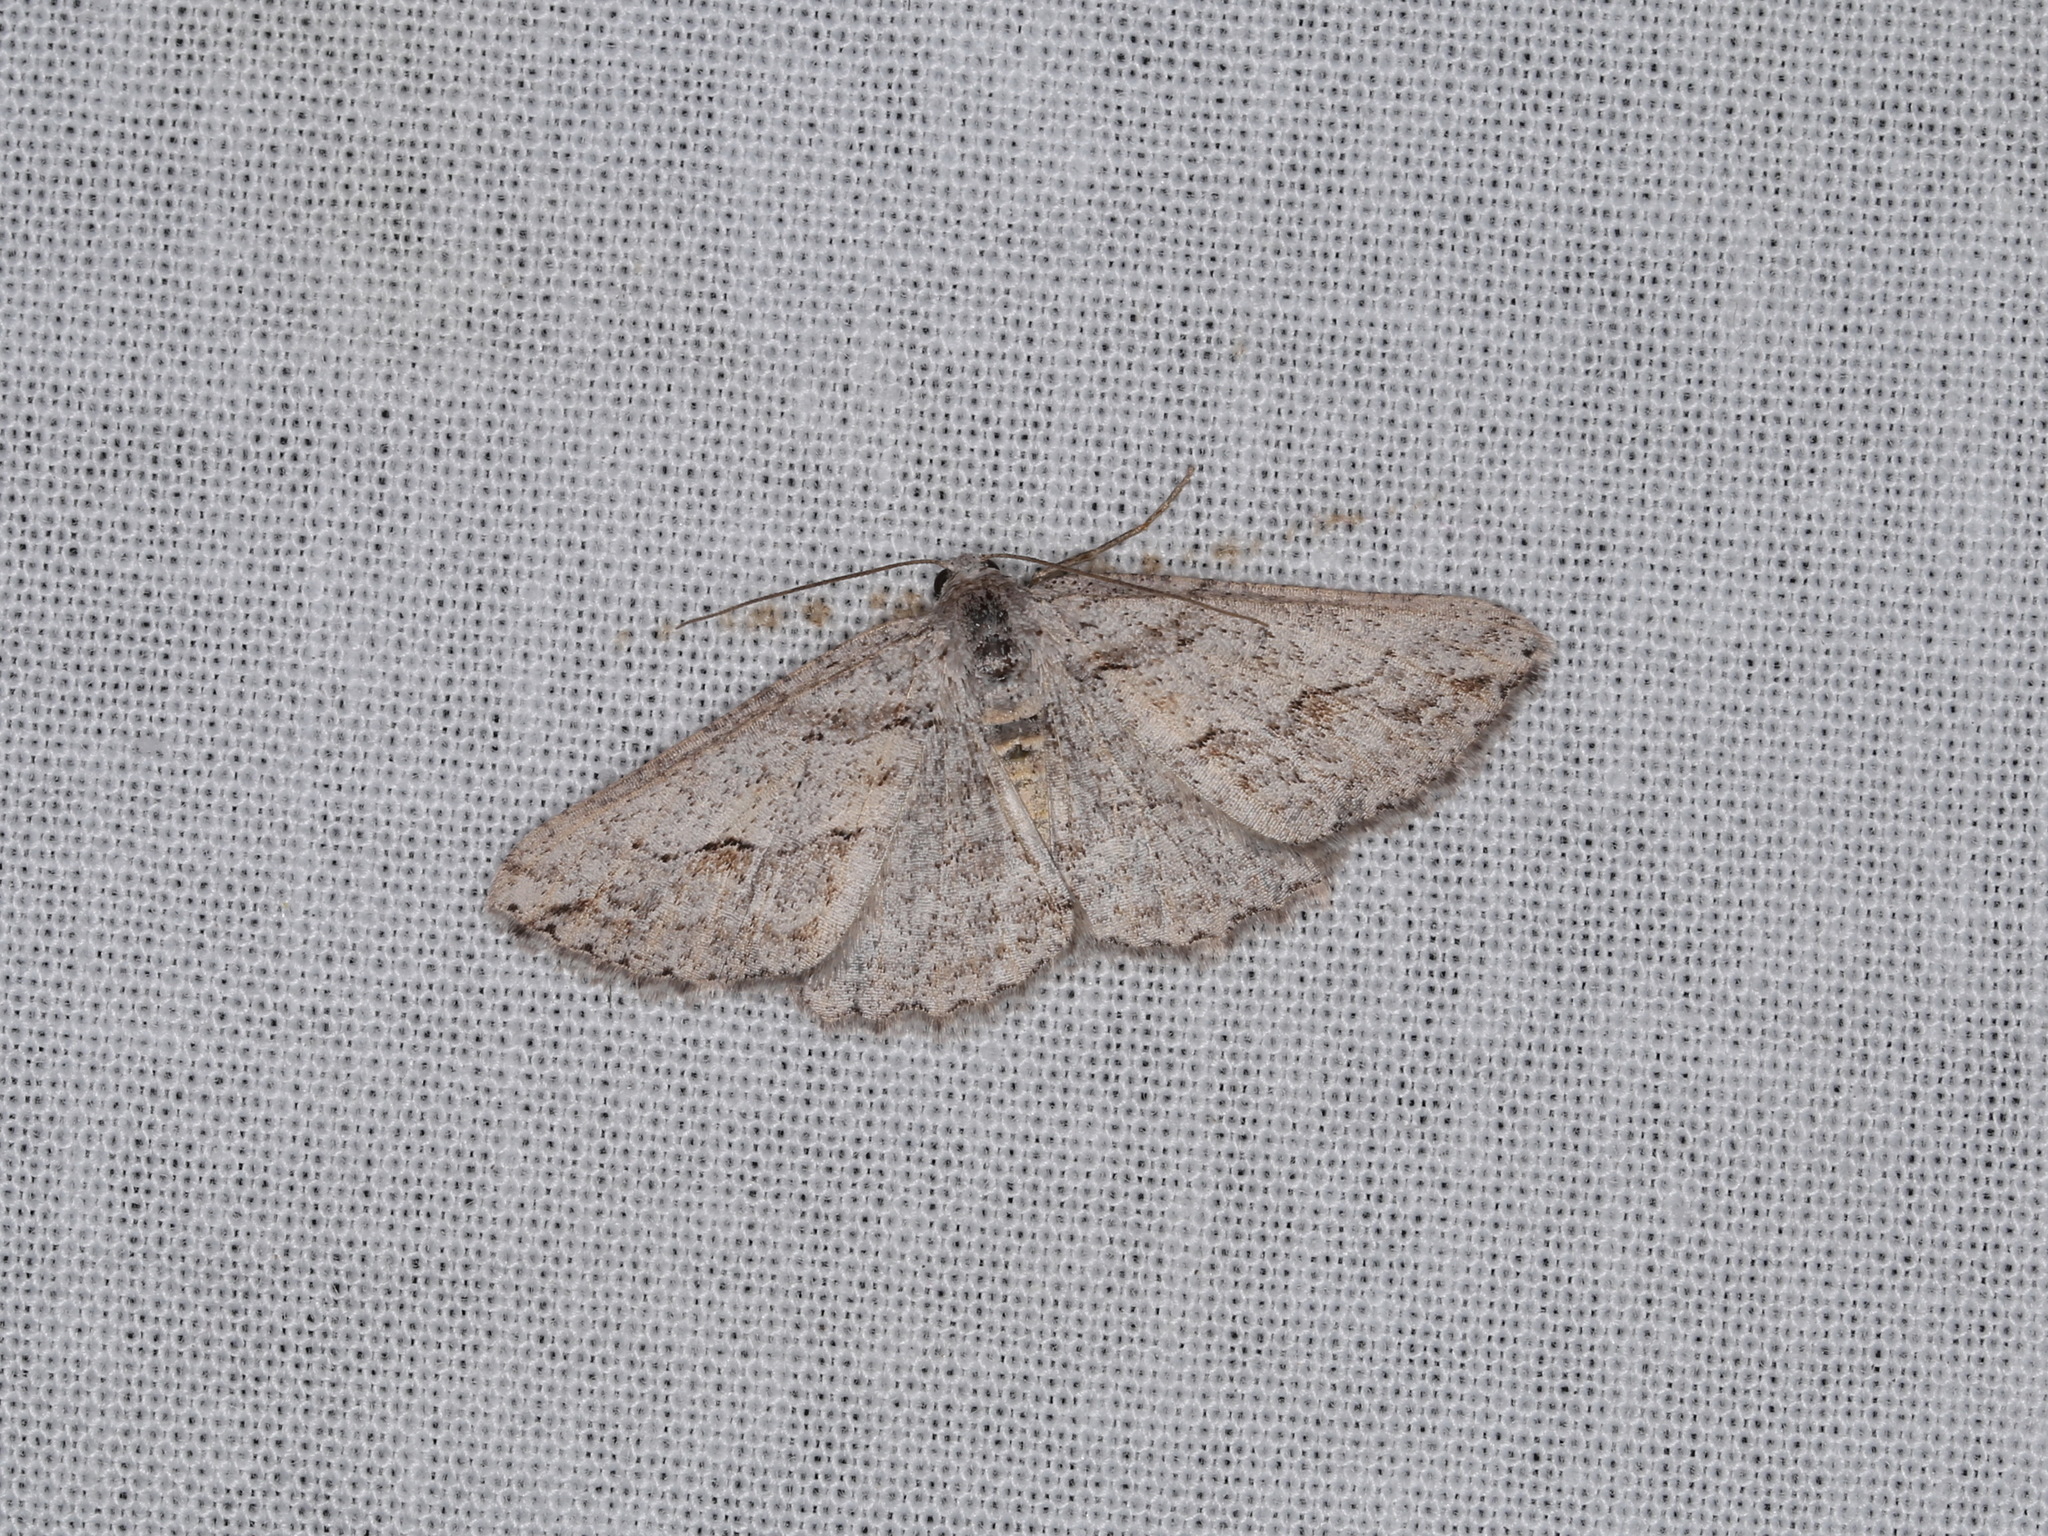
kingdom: Animalia
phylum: Arthropoda
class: Insecta
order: Lepidoptera
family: Geometridae
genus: Syneora
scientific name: Syneora mundifera
